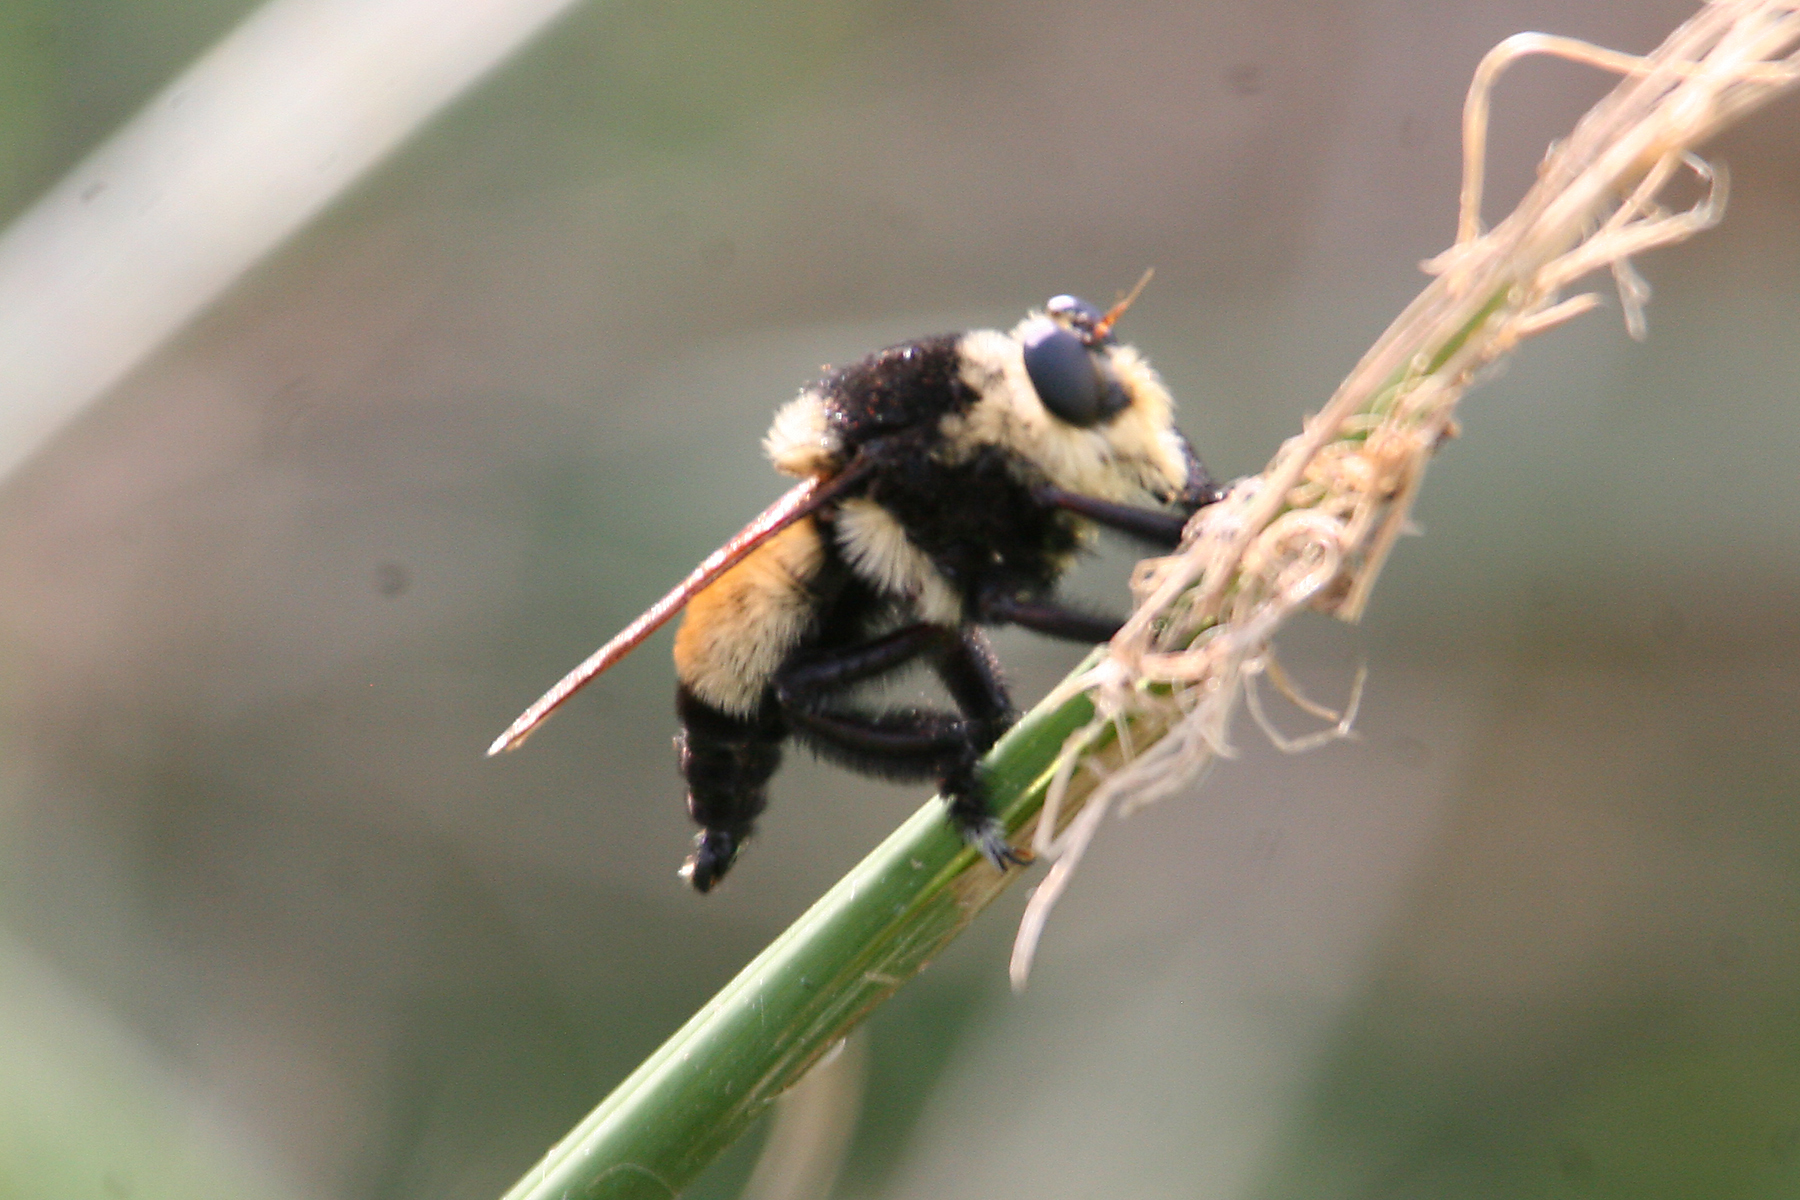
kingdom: Animalia
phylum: Arthropoda
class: Insecta
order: Diptera
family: Asilidae
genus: Mallophora
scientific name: Mallophora orcina
